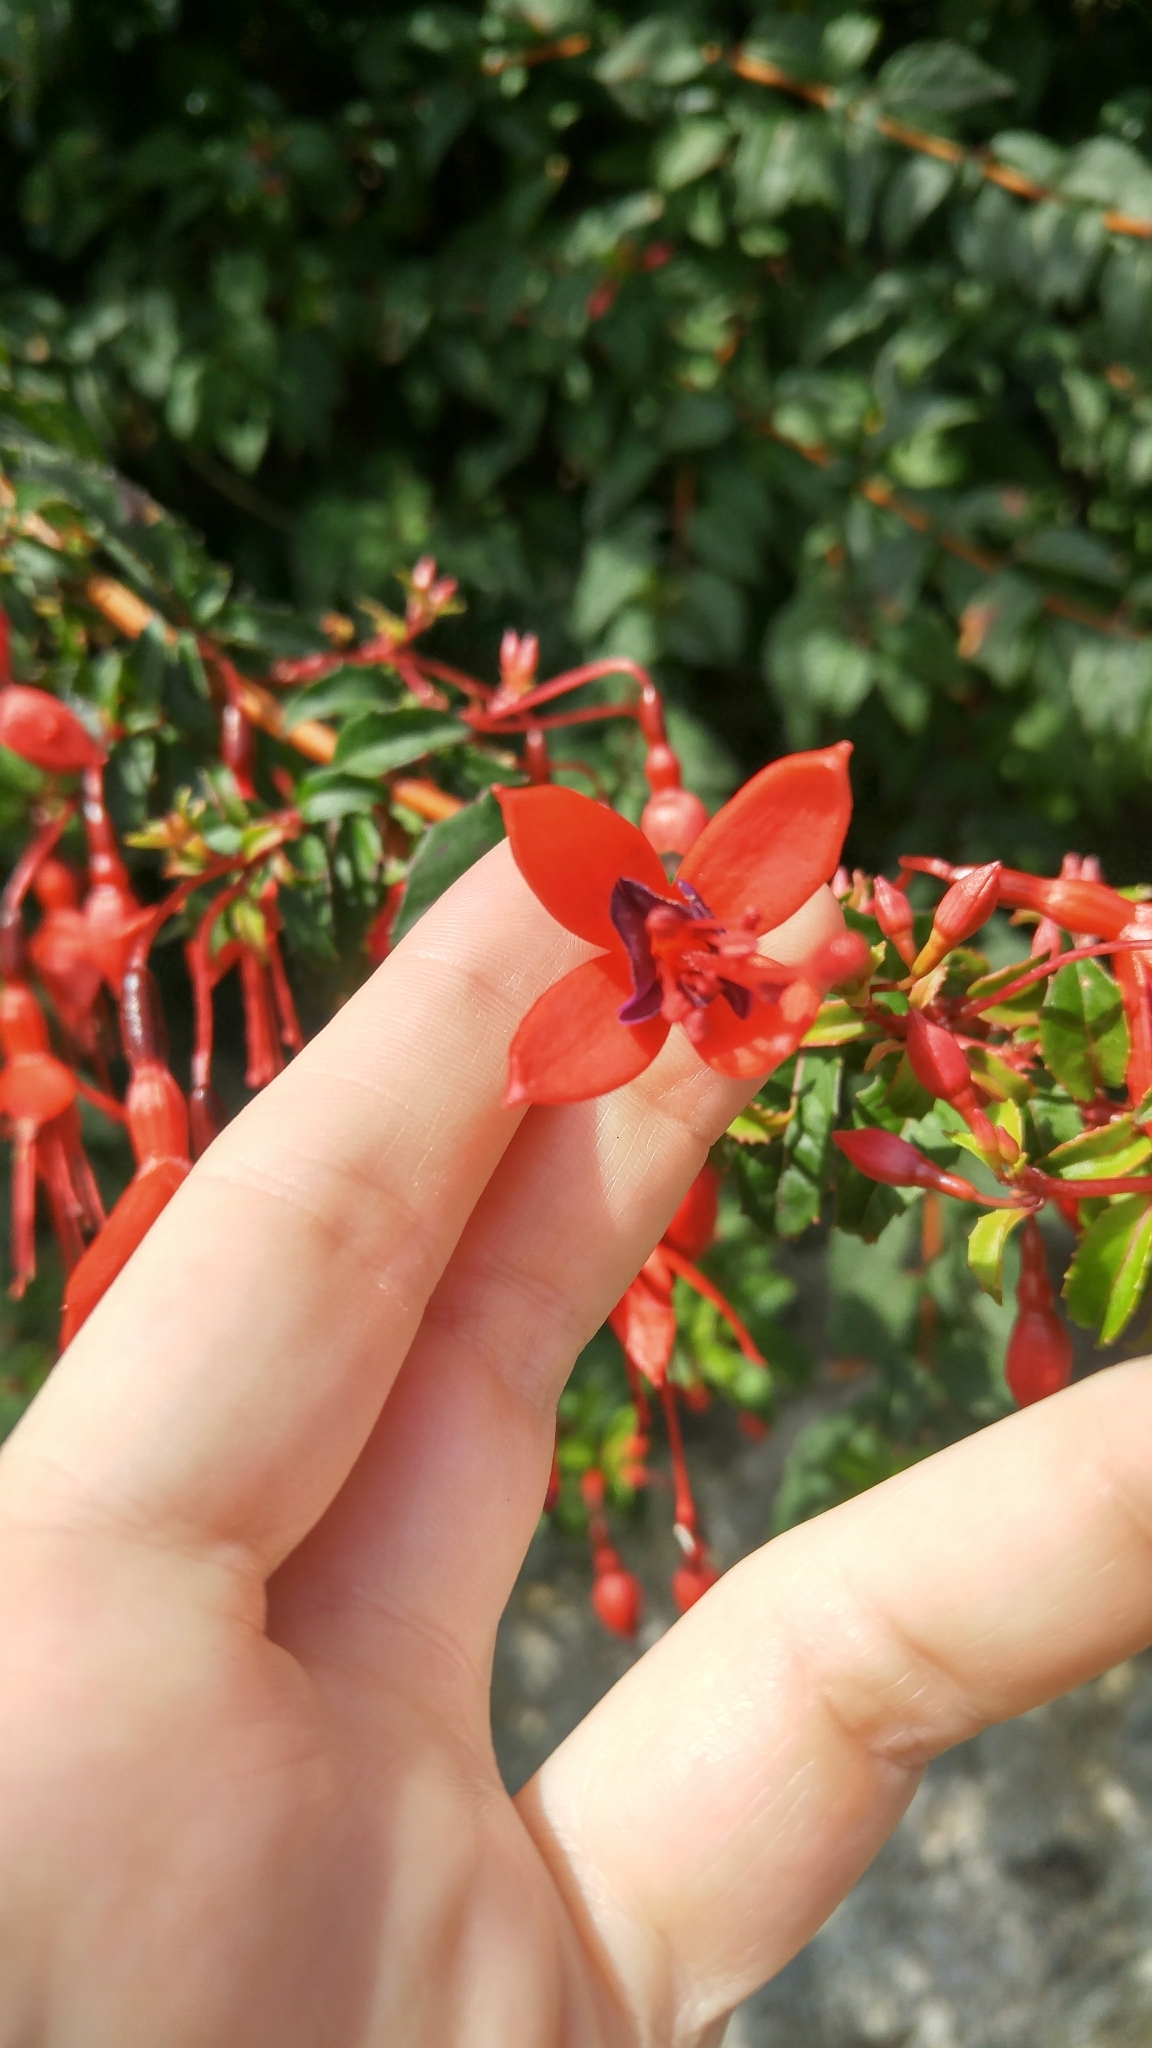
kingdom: Plantae
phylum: Tracheophyta
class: Magnoliopsida
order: Myrtales
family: Onagraceae
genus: Fuchsia
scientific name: Fuchsia magellanica
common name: Hardy fuchsia
